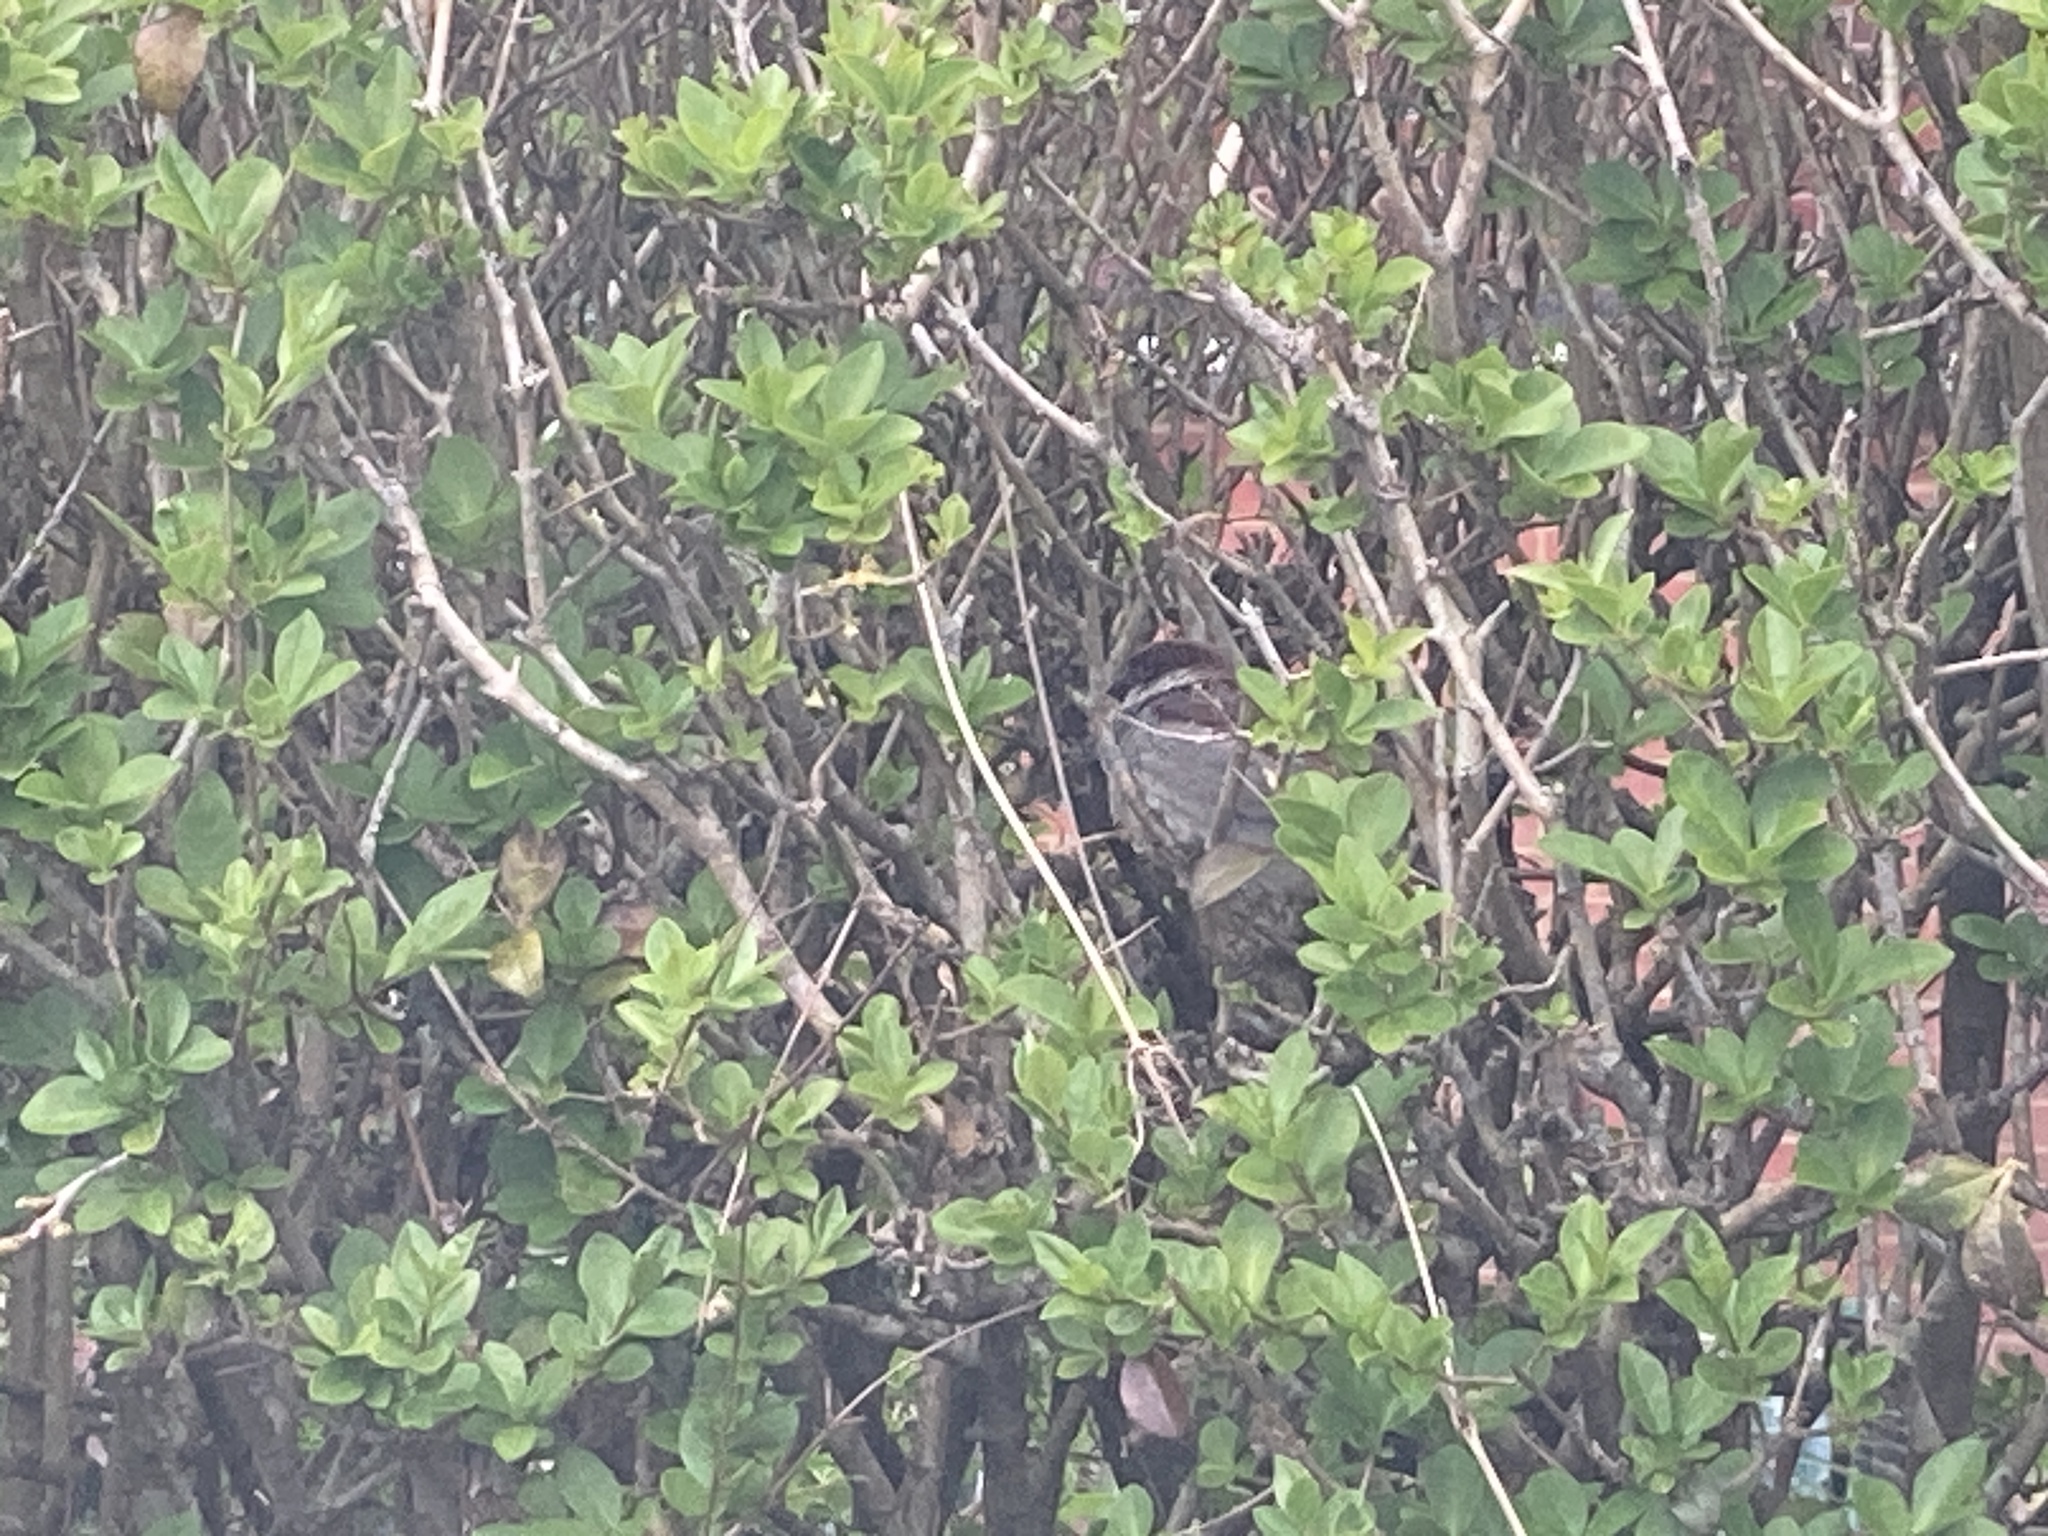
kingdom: Animalia
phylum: Chordata
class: Aves
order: Passeriformes
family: Passeridae
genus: Passer
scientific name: Passer domesticus
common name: House sparrow
